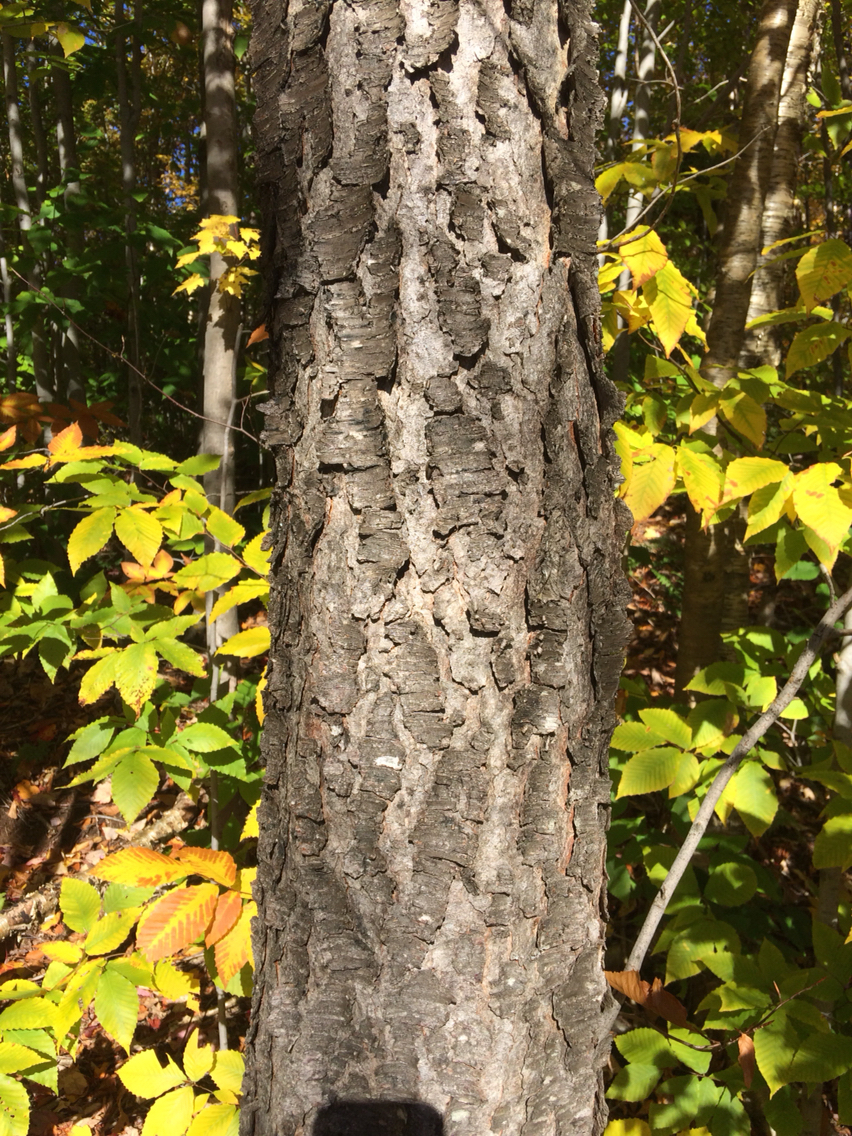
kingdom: Plantae
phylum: Tracheophyta
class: Magnoliopsida
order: Rosales
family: Rosaceae
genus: Prunus
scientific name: Prunus serotina
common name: Black cherry
